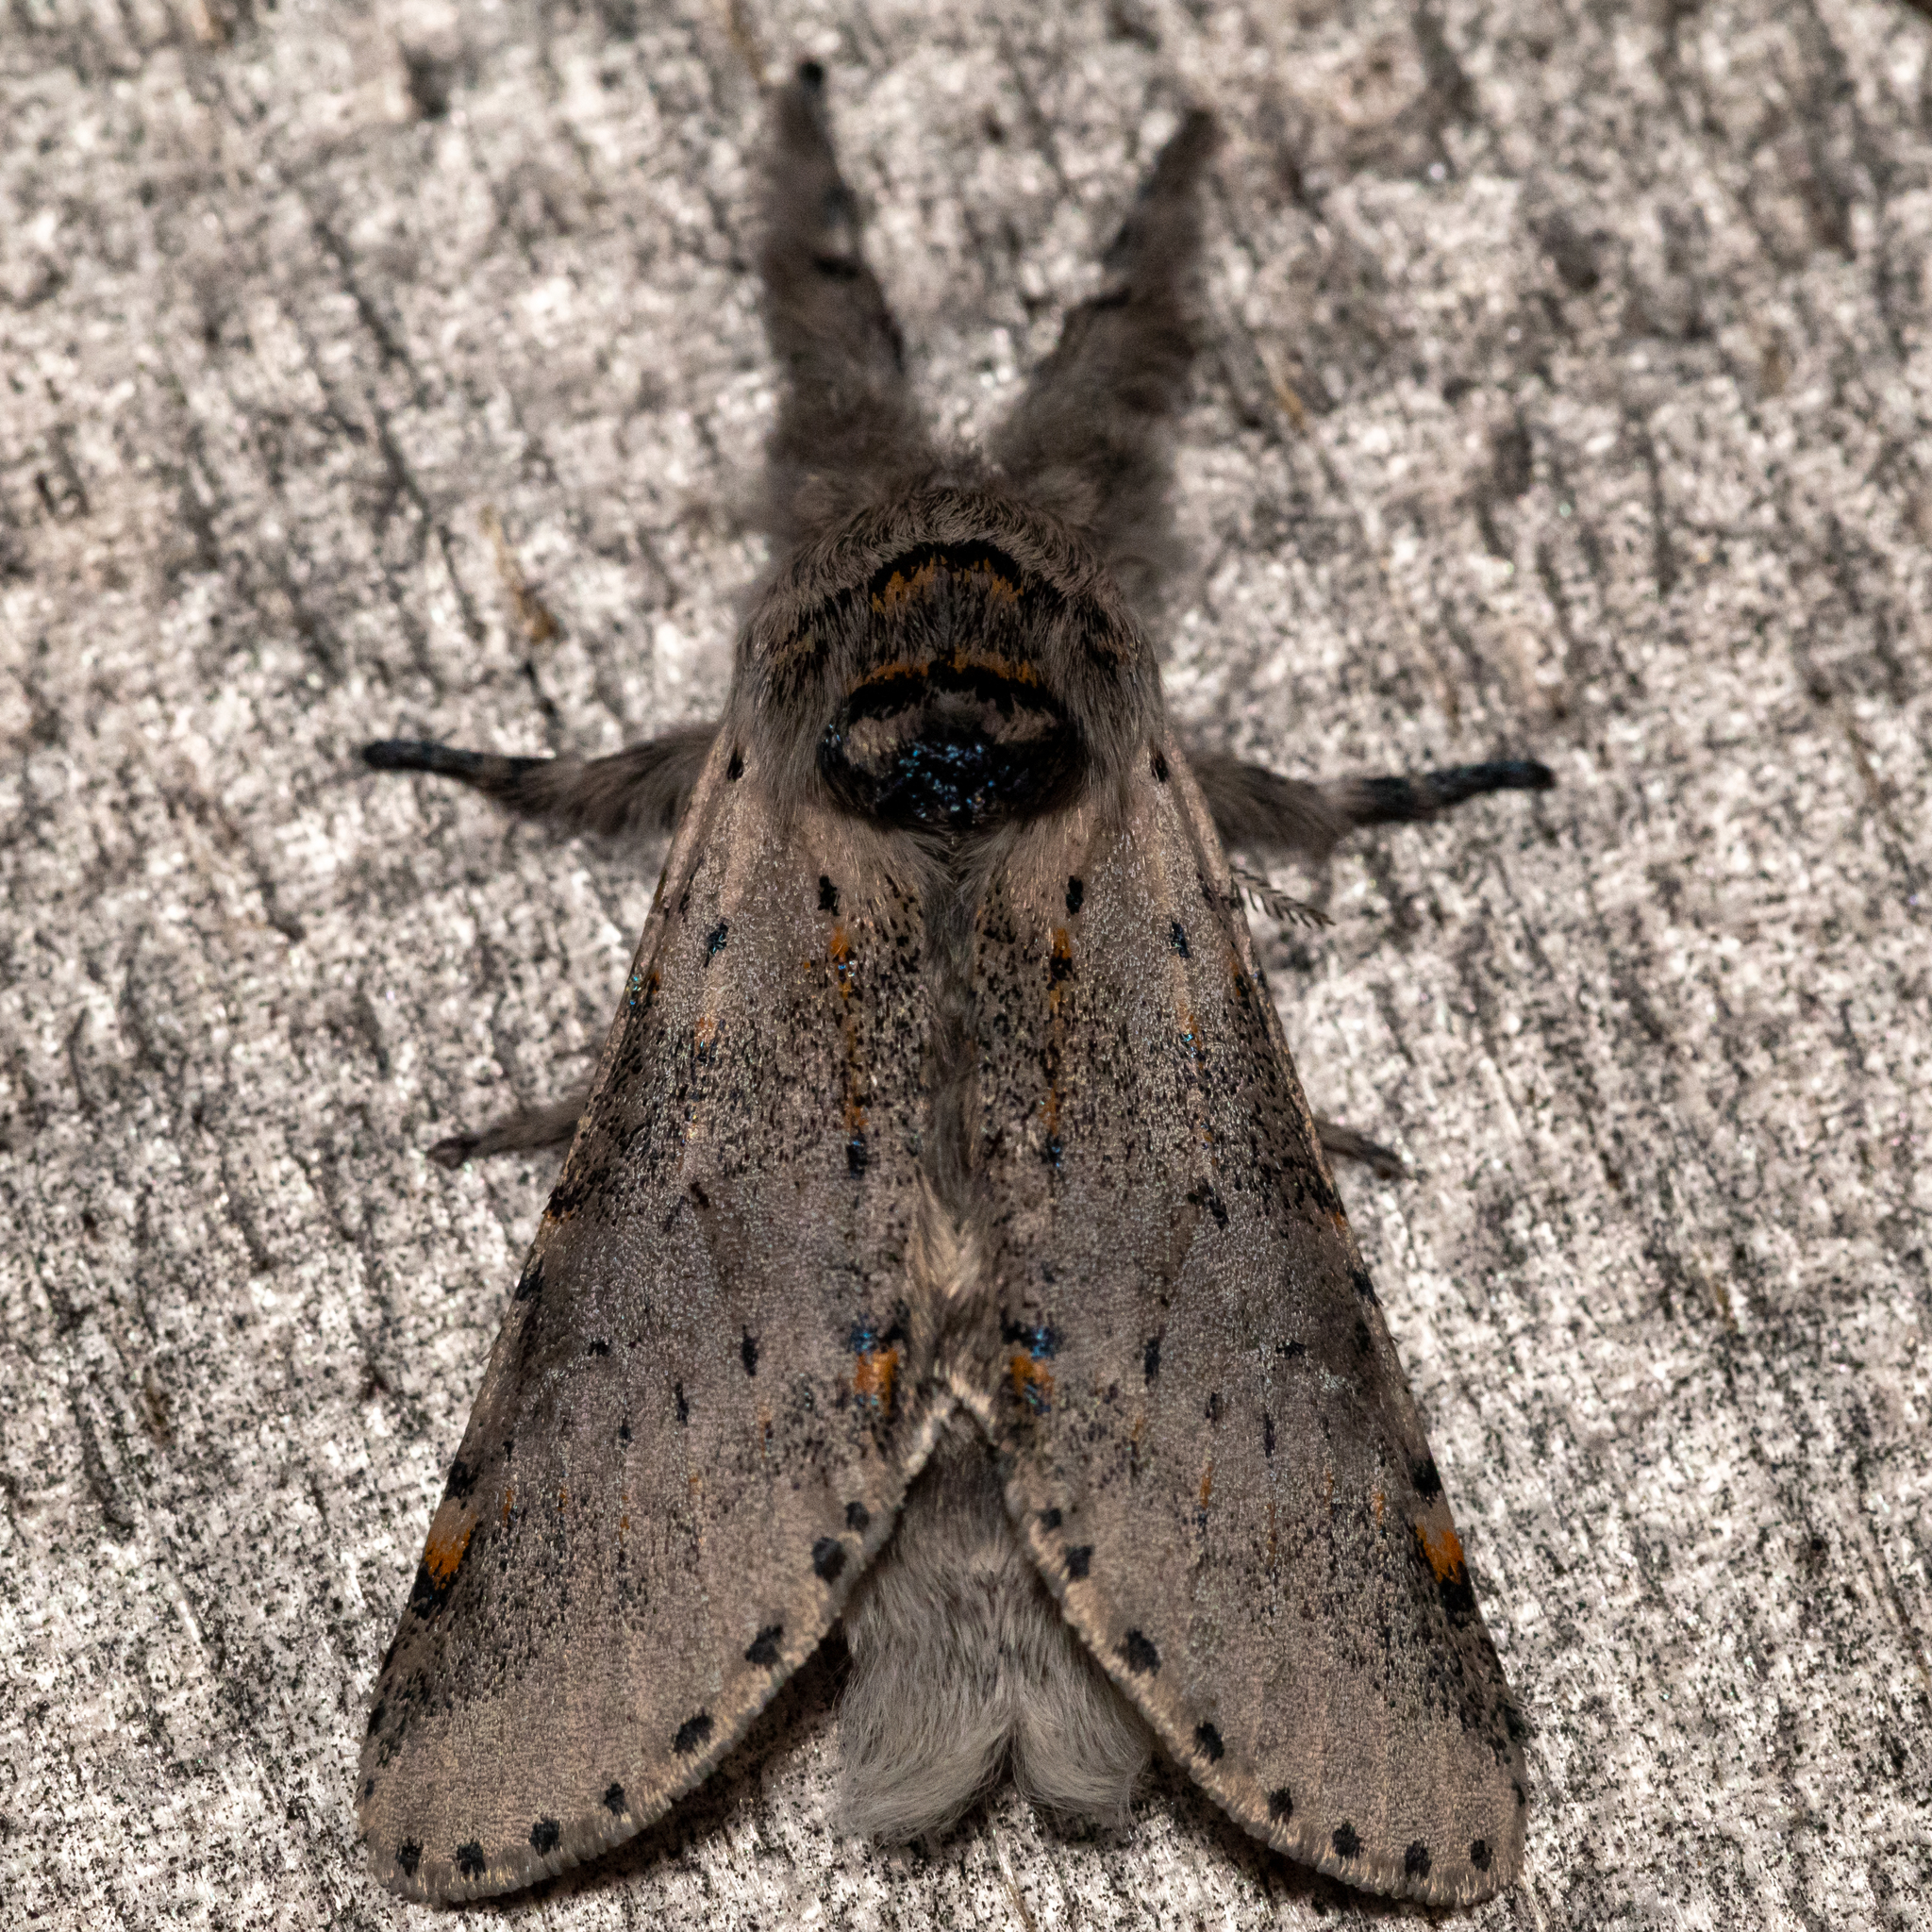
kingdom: Animalia
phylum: Arthropoda
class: Insecta
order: Lepidoptera
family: Notodontidae
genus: Furcula
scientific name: Furcula cinerea
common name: Gray furcula
